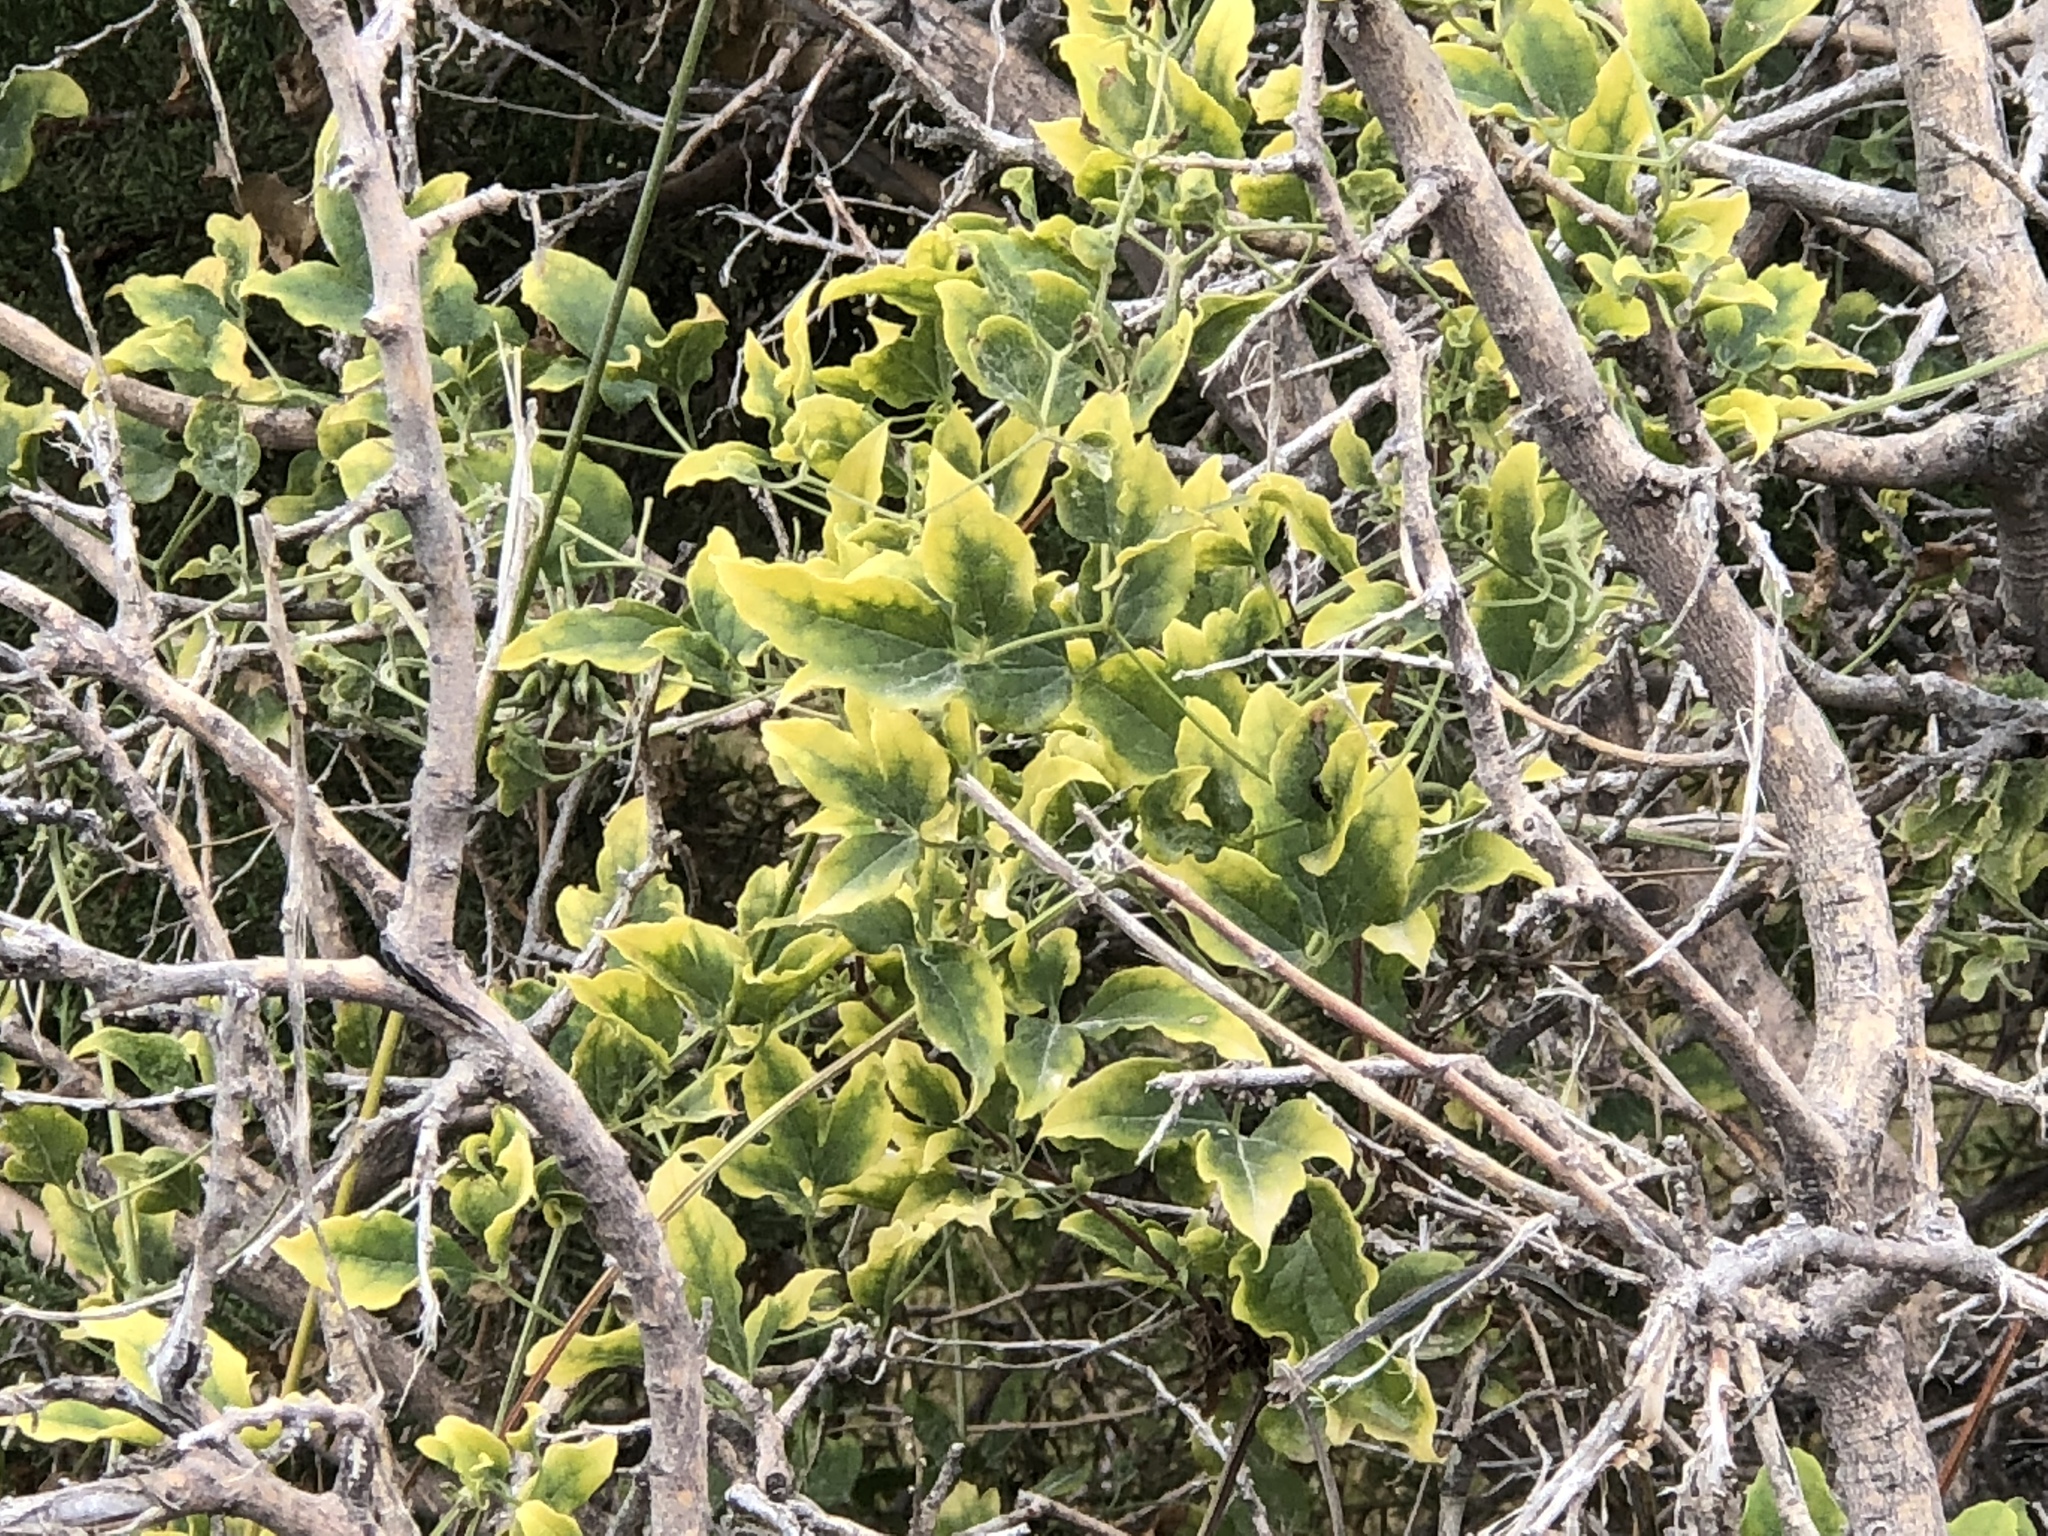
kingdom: Plantae
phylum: Tracheophyta
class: Magnoliopsida
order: Rosales
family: Cannabaceae
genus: Celtis
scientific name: Celtis reticulata
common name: Netleaf hackberry
